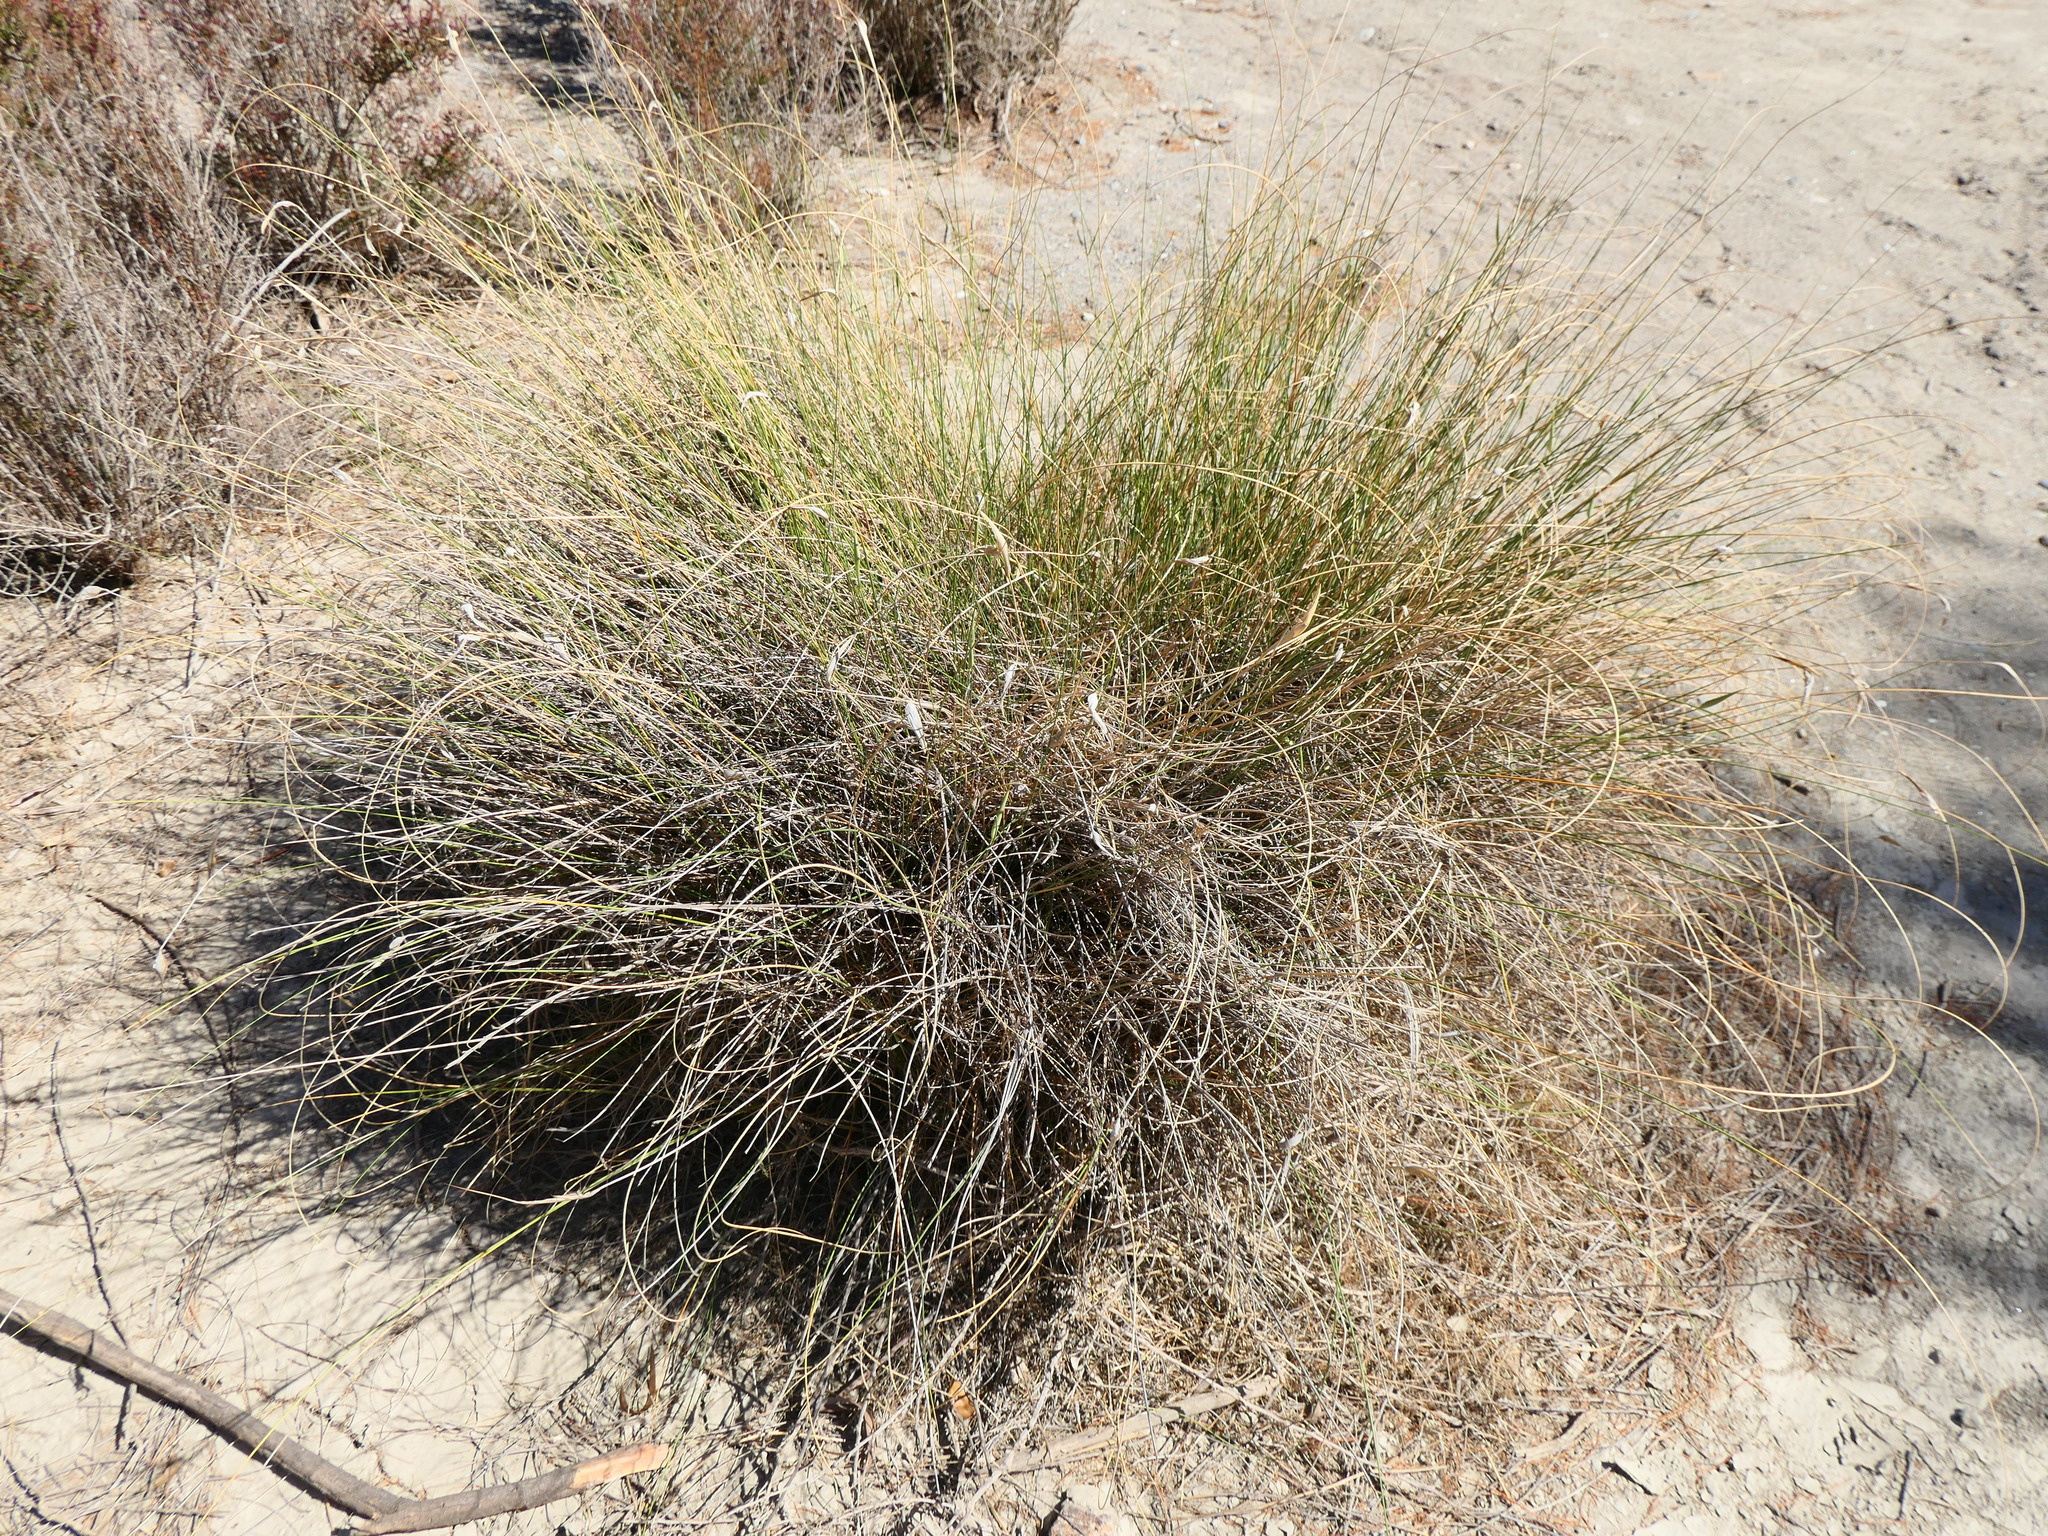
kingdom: Plantae
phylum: Tracheophyta
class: Liliopsida
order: Poales
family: Poaceae
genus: Lygeum
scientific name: Lygeum spartum
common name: Albardine
